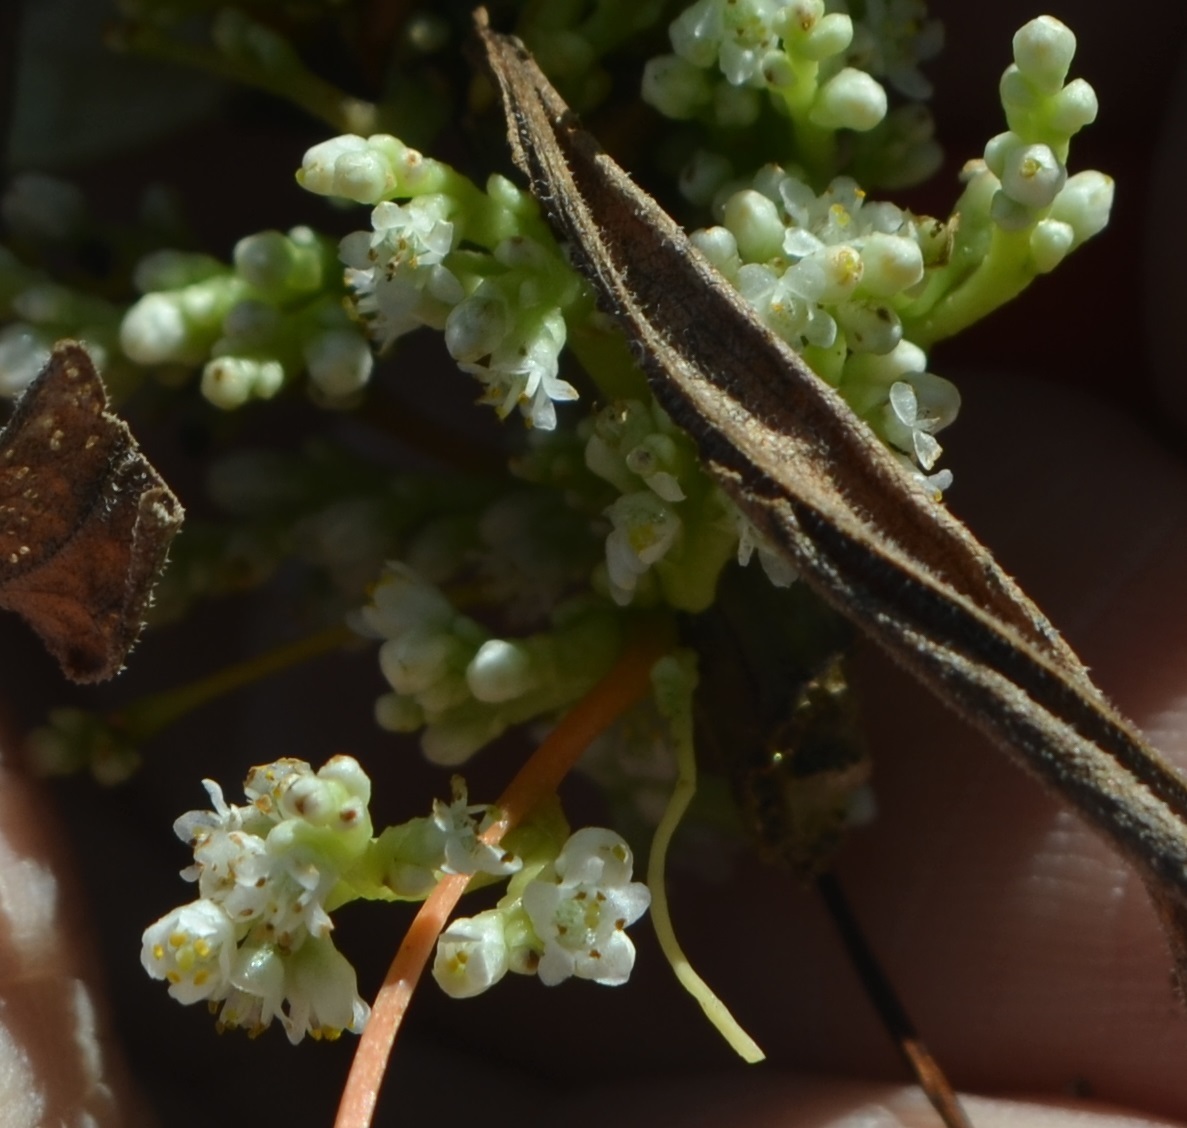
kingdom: Plantae
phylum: Tracheophyta
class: Magnoliopsida
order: Solanales
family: Convolvulaceae
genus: Cuscuta
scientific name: Cuscuta gronovii
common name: Common dodder
